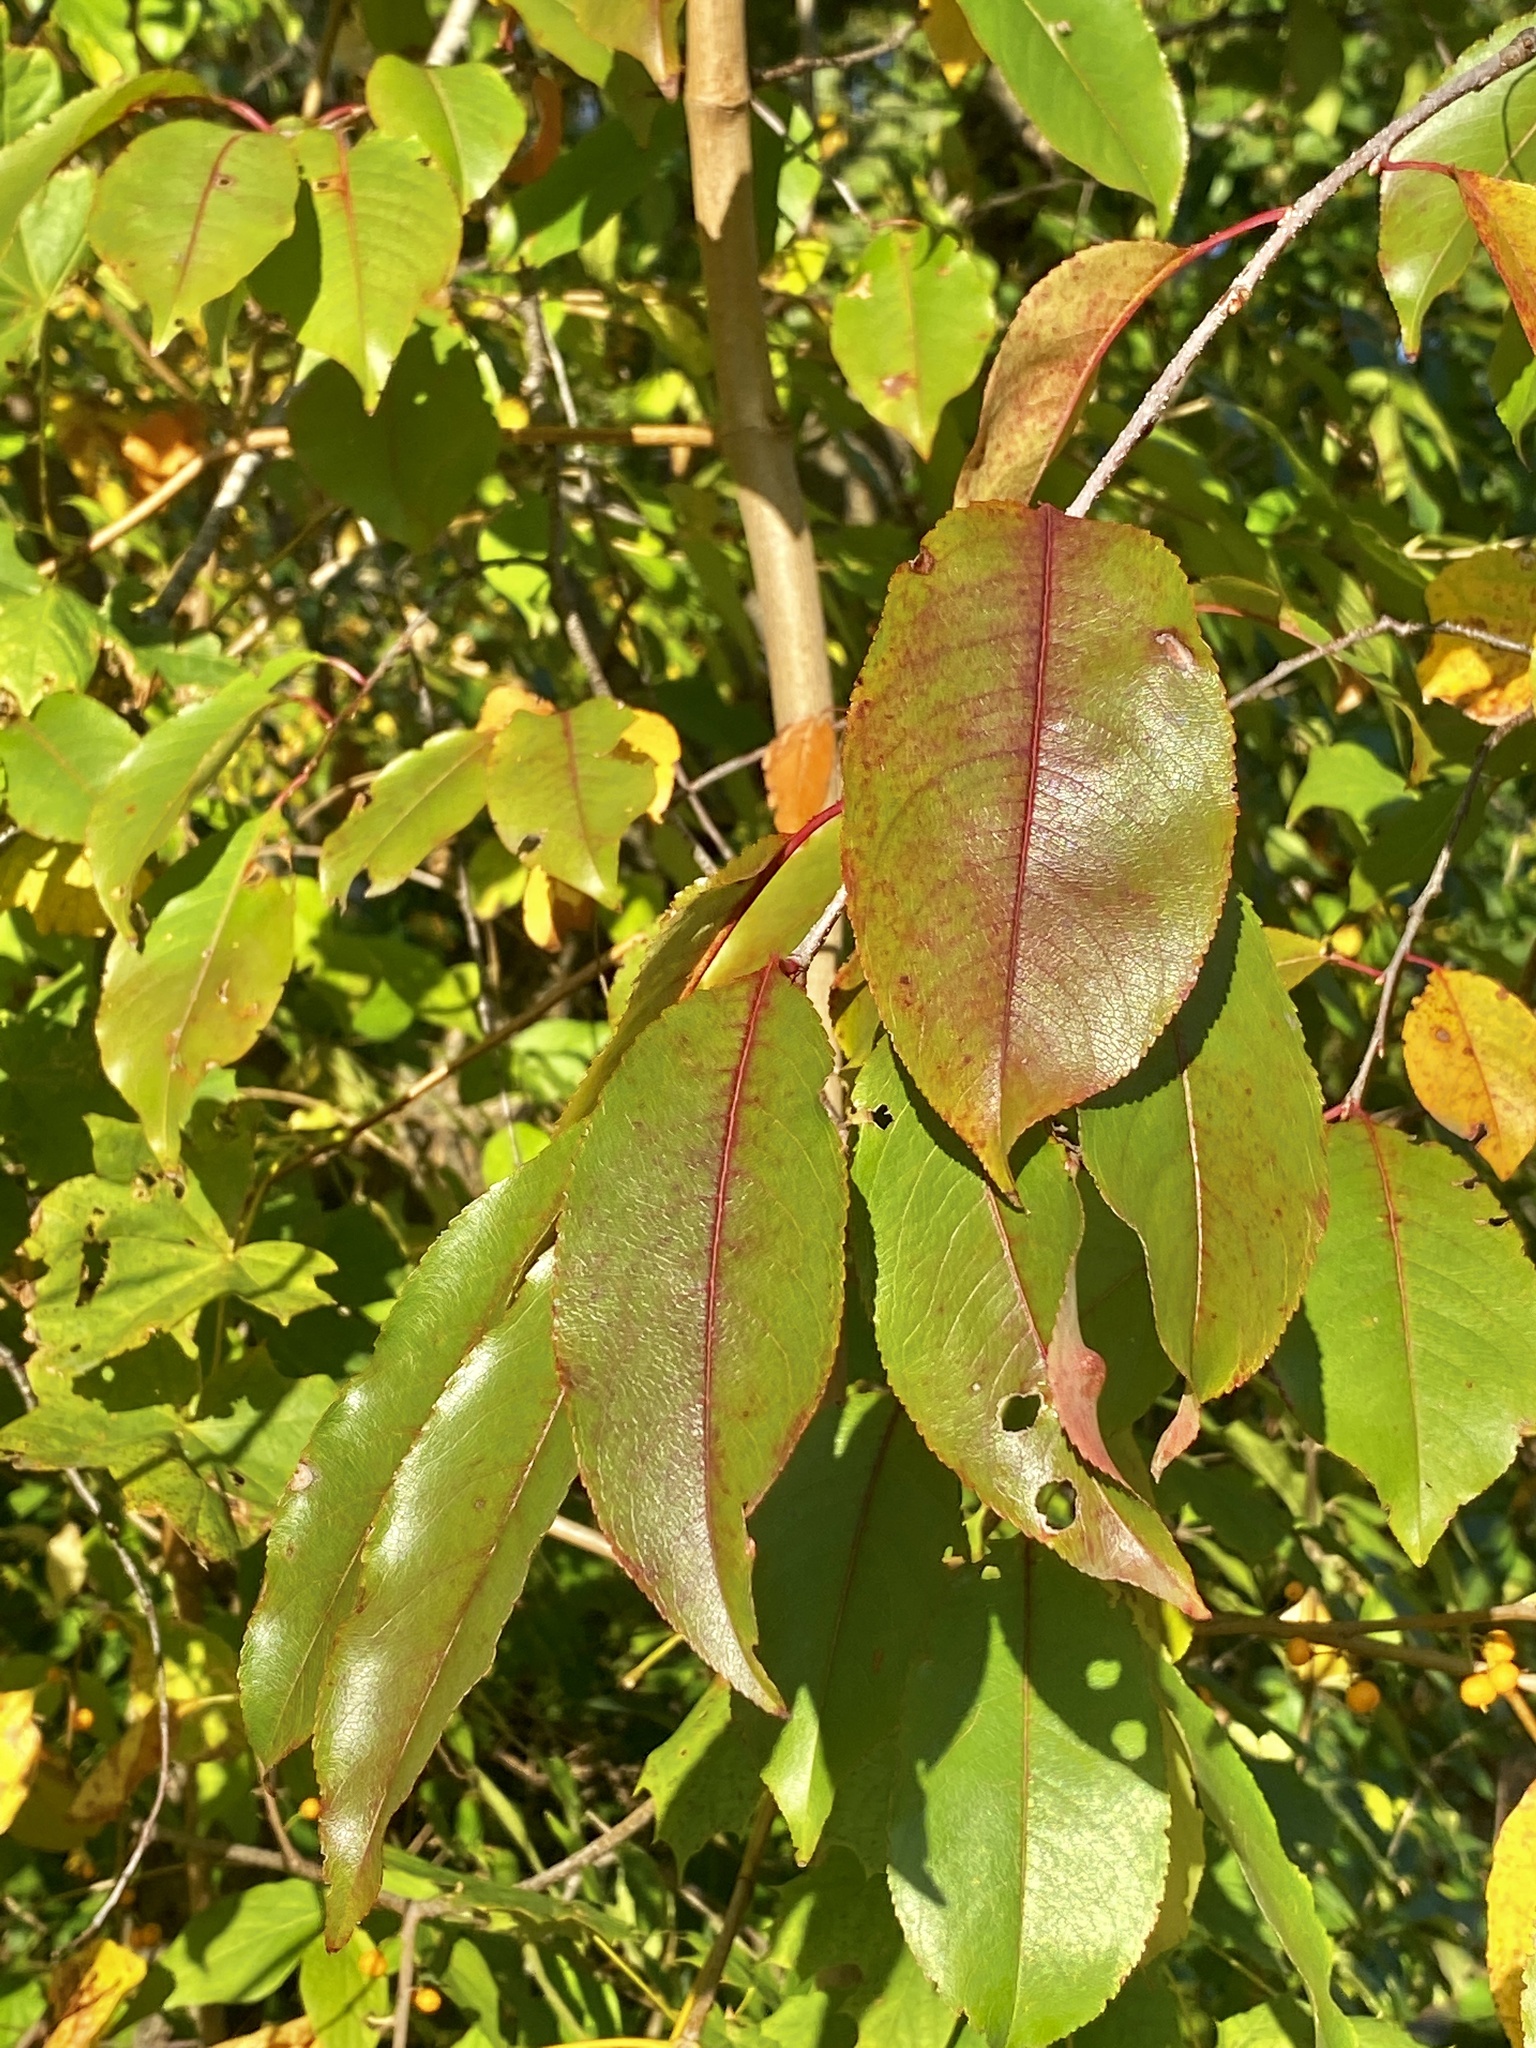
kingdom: Plantae
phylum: Tracheophyta
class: Magnoliopsida
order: Rosales
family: Rosaceae
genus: Prunus
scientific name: Prunus serotina
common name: Black cherry
